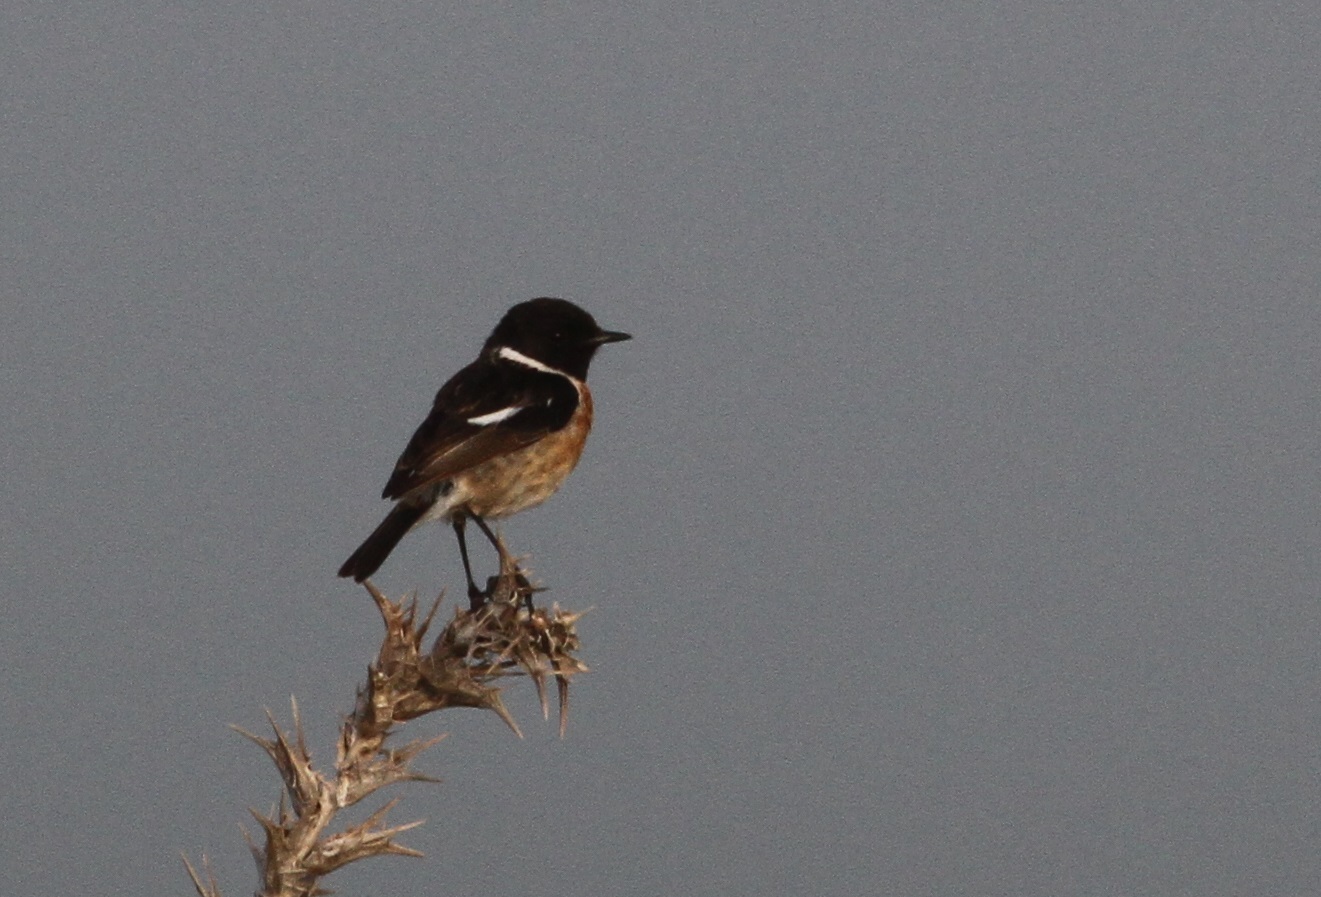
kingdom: Animalia
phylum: Chordata
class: Aves
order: Passeriformes
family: Muscicapidae
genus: Saxicola
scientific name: Saxicola rubicola
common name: European stonechat
